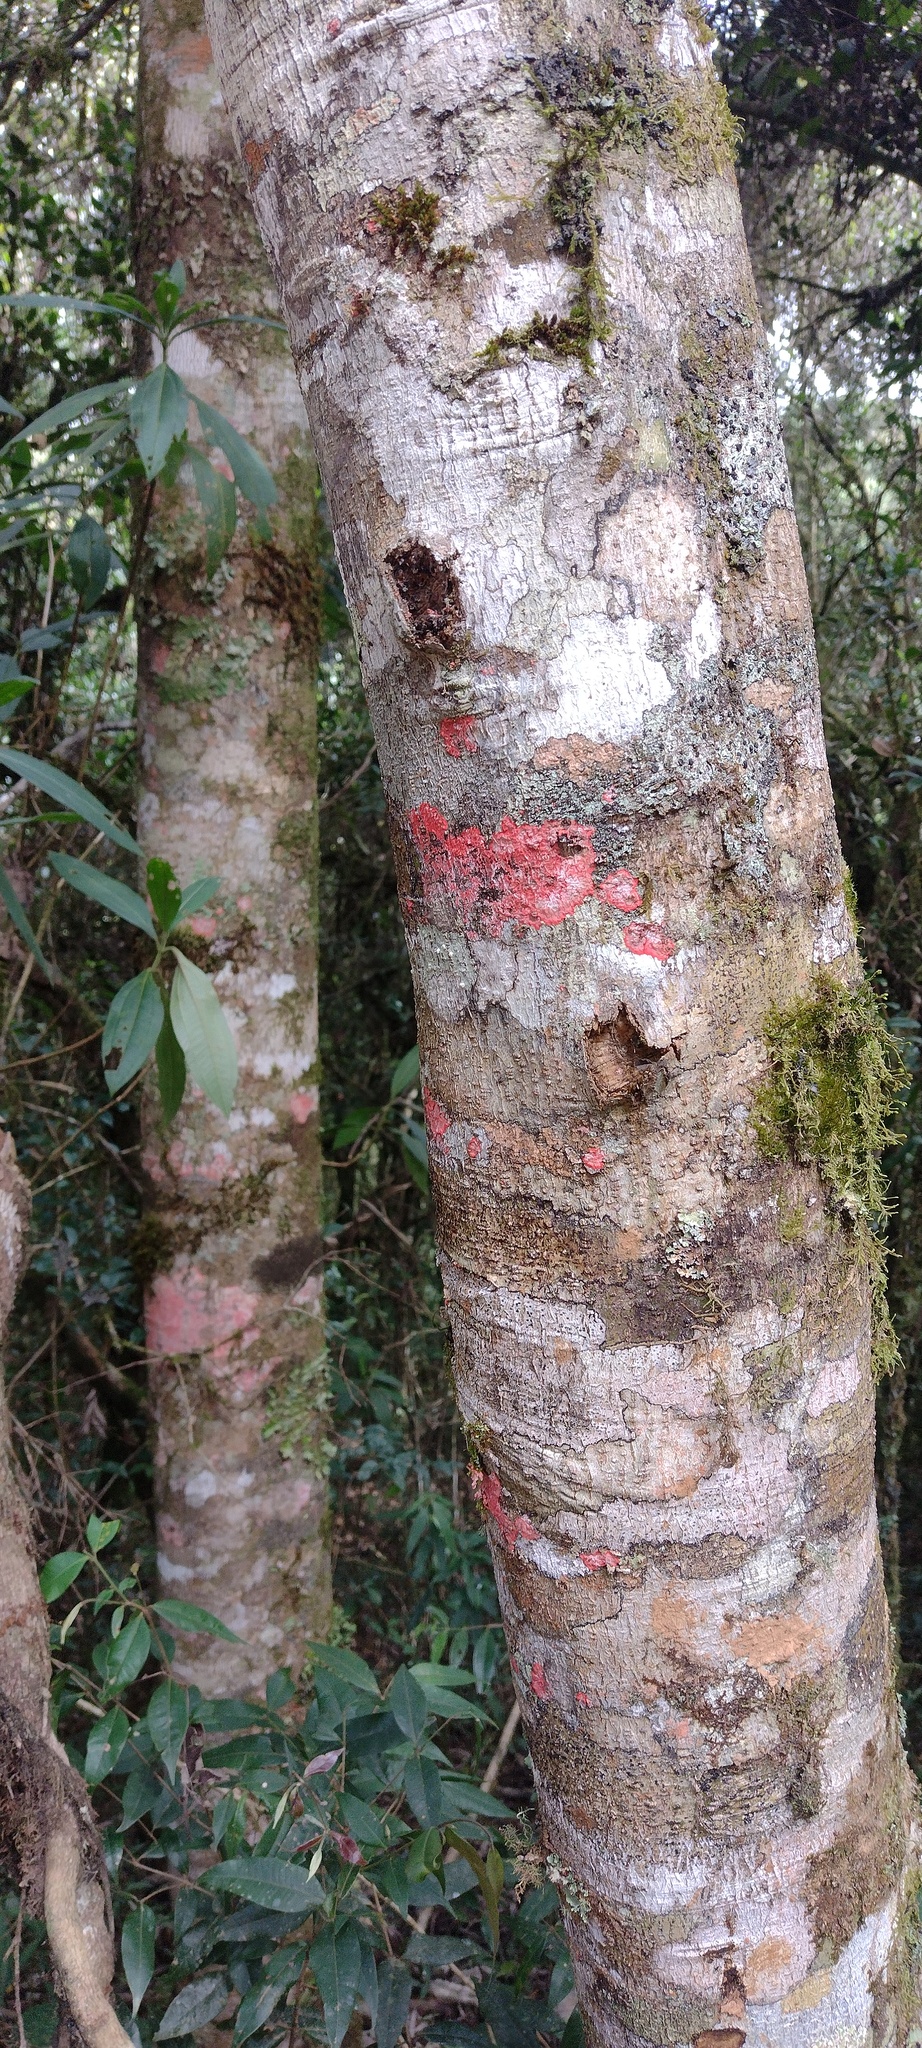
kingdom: Fungi
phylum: Ascomycota
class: Arthoniomycetes
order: Arthoniales
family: Arthoniaceae
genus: Herpothallon
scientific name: Herpothallon rubrocinctum
